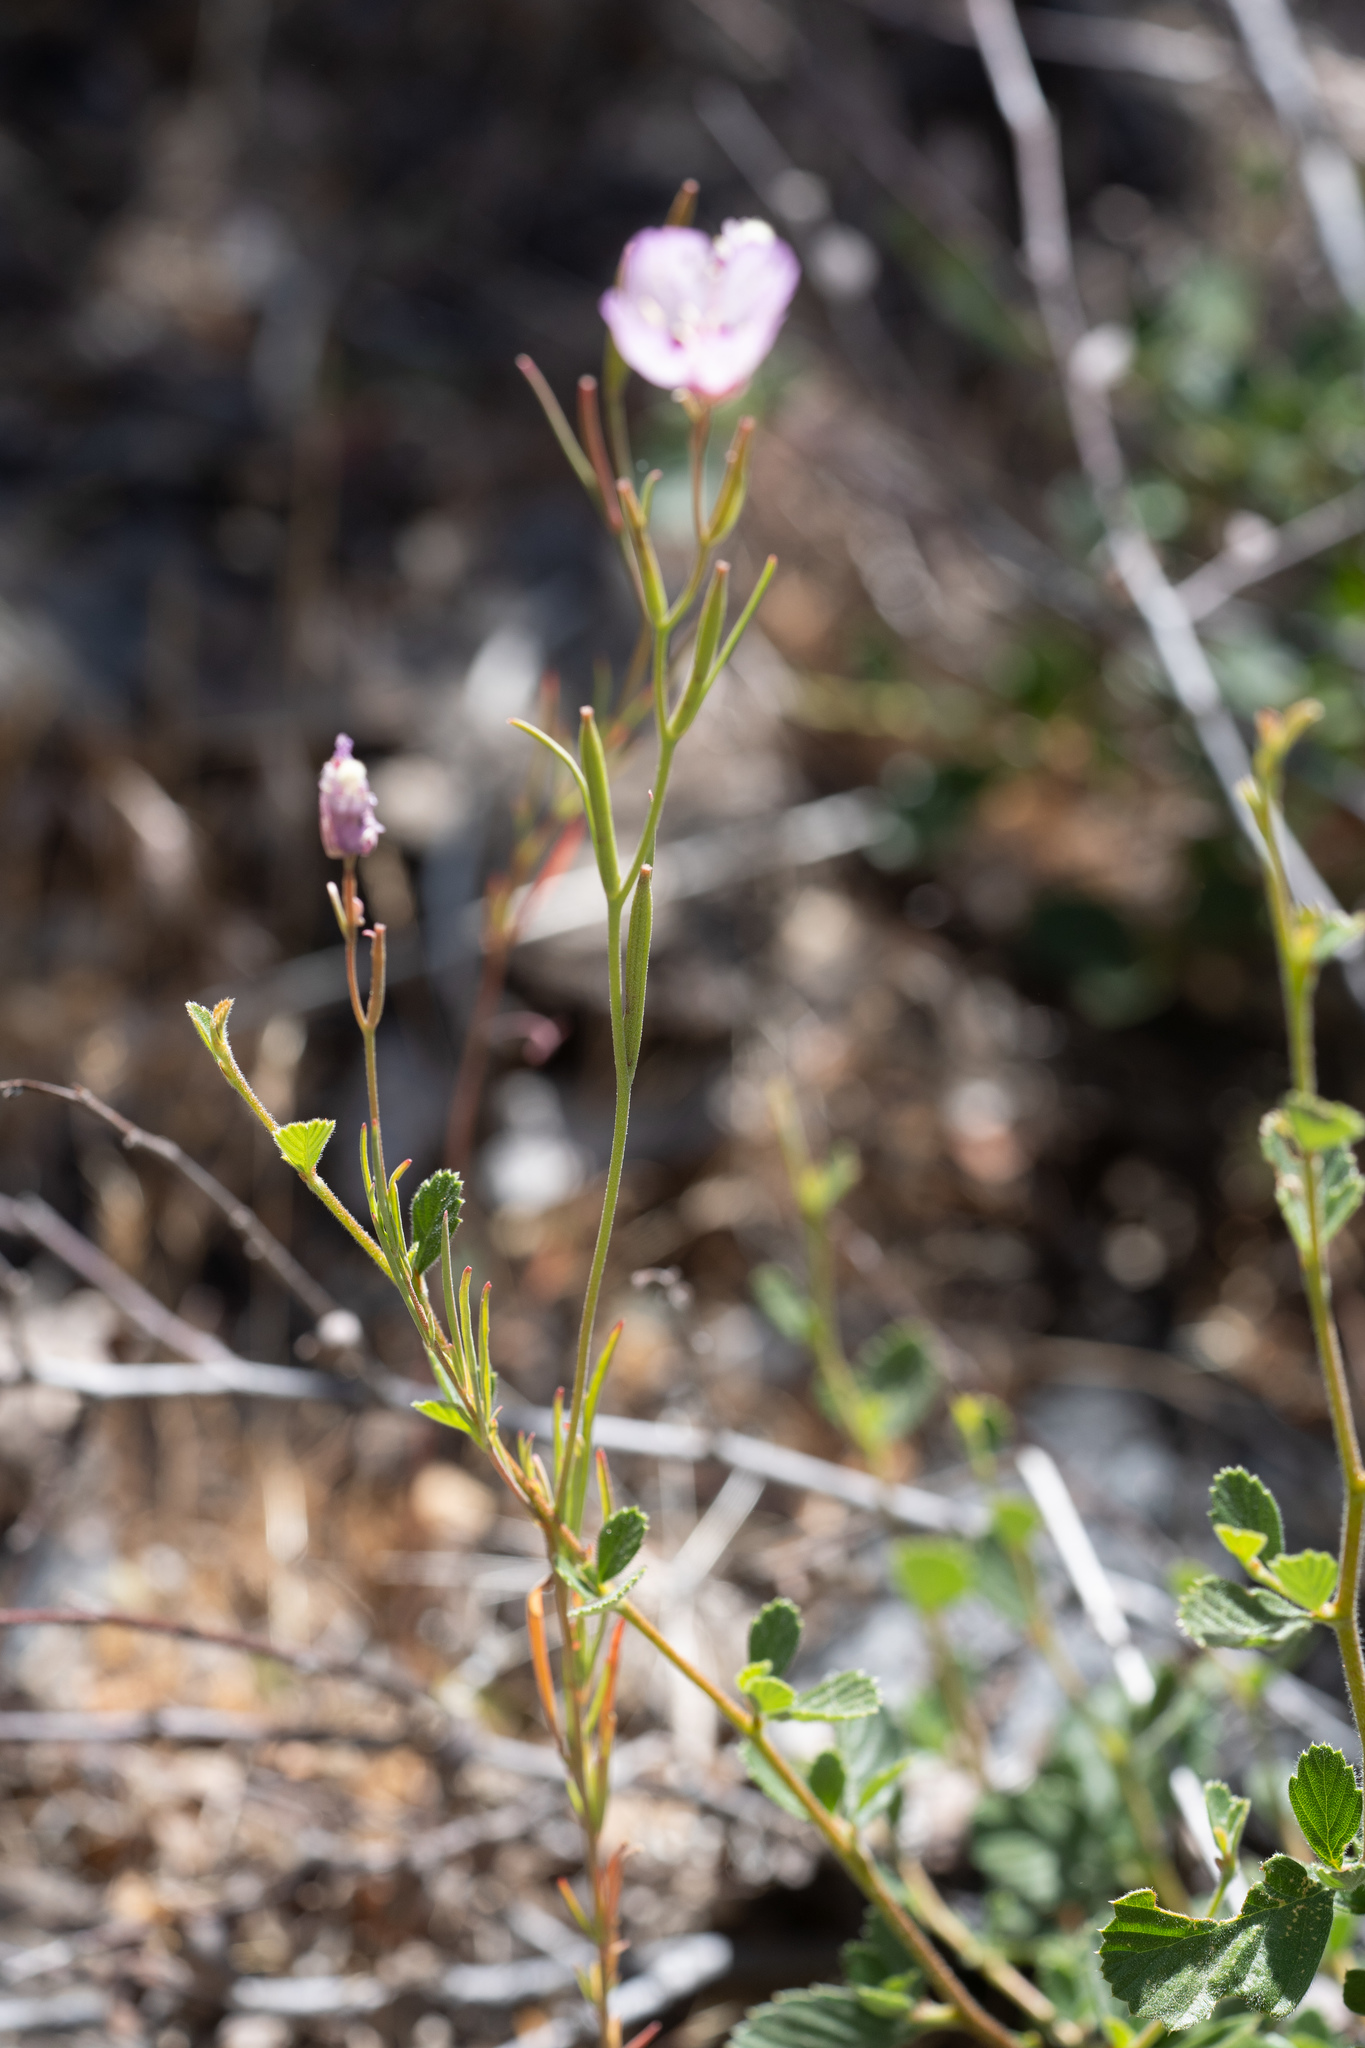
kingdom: Plantae
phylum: Tracheophyta
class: Magnoliopsida
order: Myrtales
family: Onagraceae
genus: Clarkia
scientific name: Clarkia cylindrica
